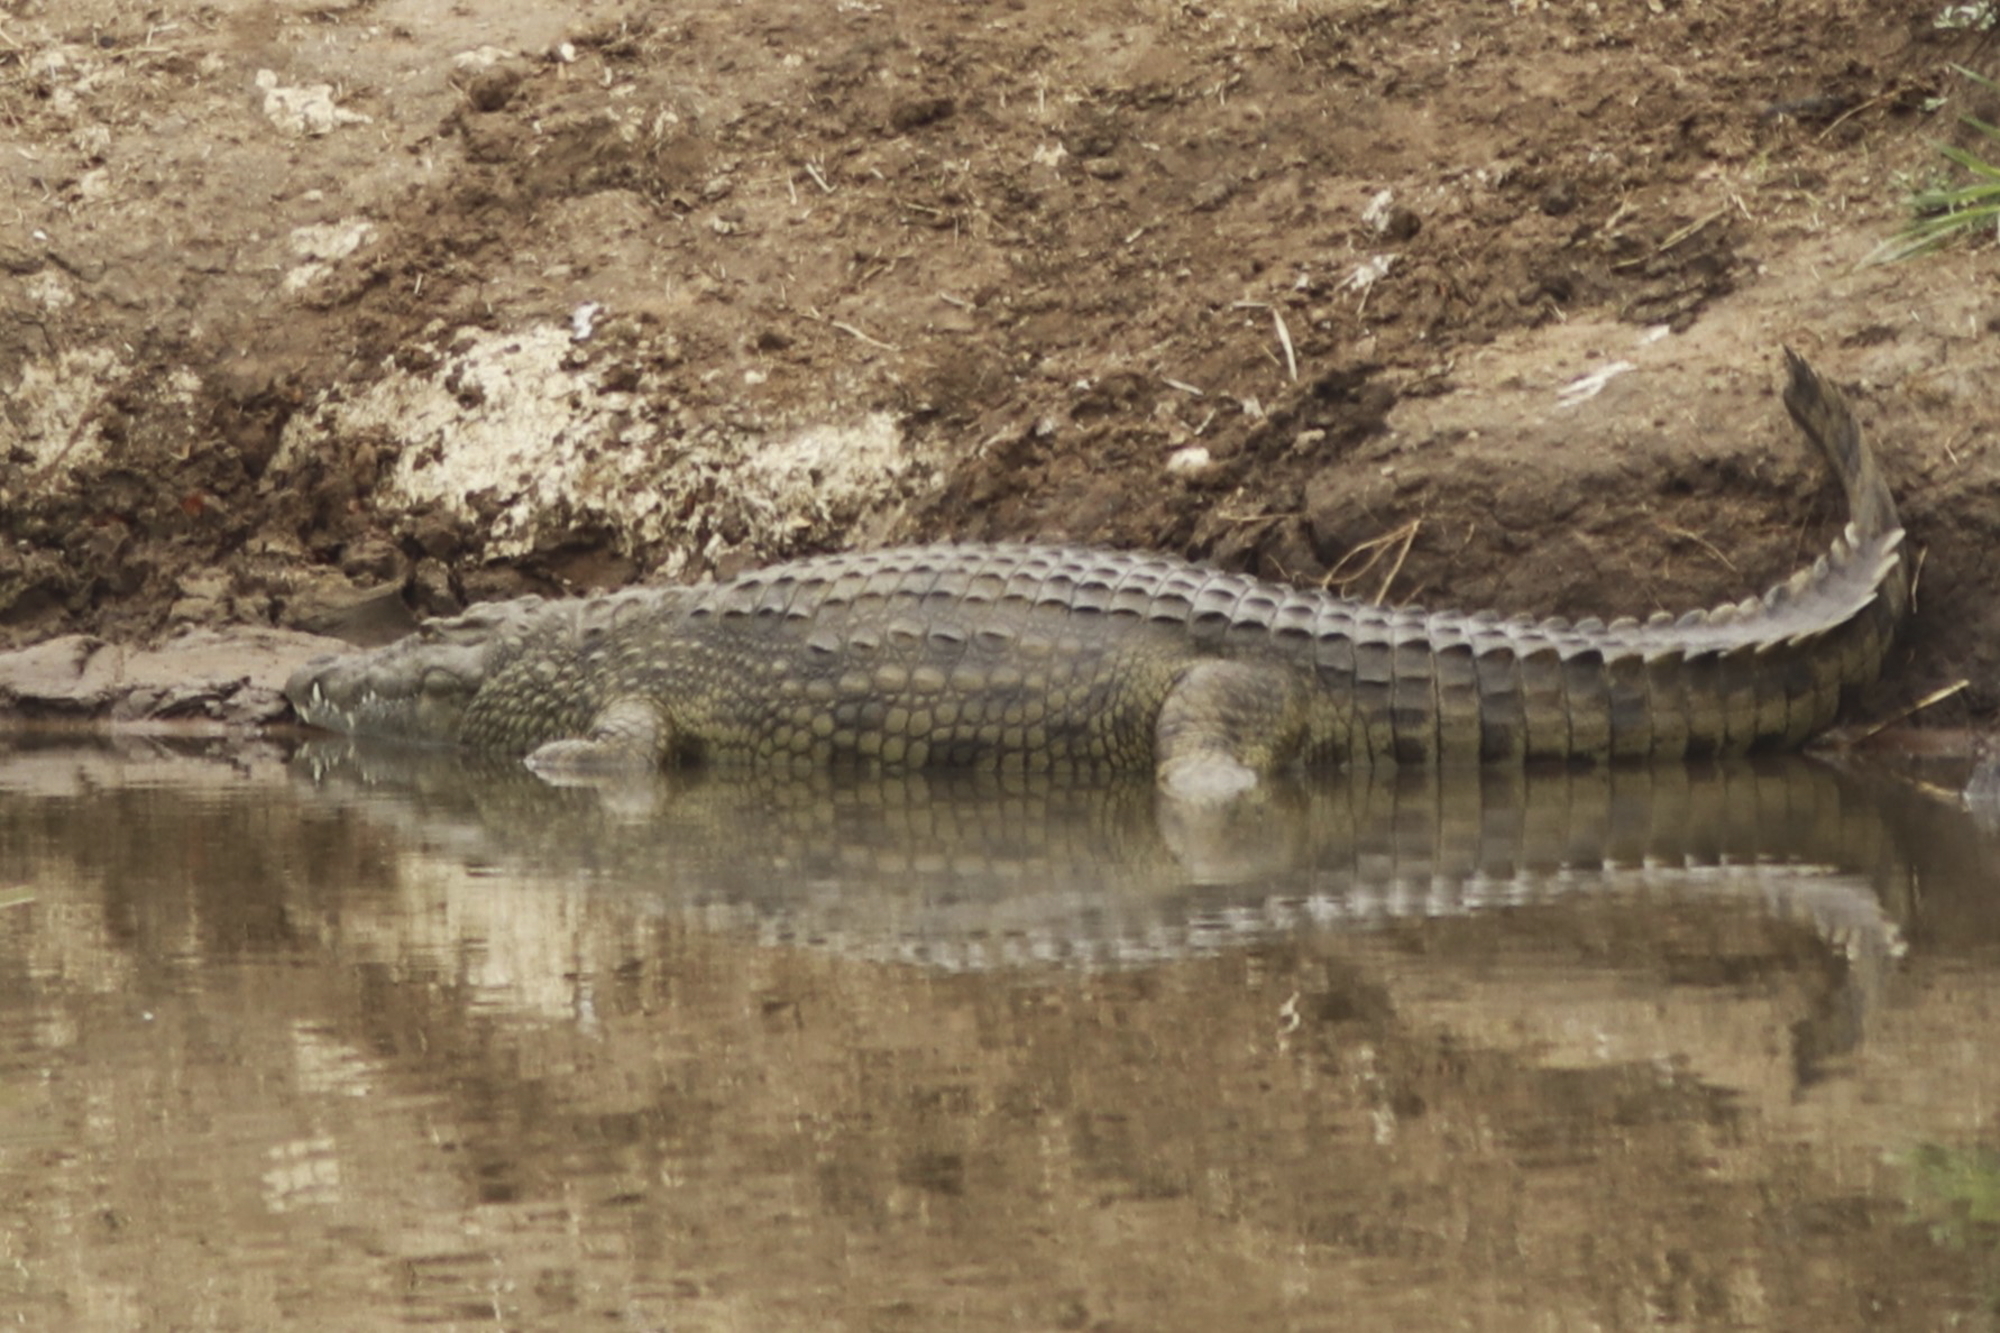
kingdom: Animalia
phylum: Chordata
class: Crocodylia
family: Crocodylidae
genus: Crocodylus
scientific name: Crocodylus niloticus
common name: Nile crocodile
